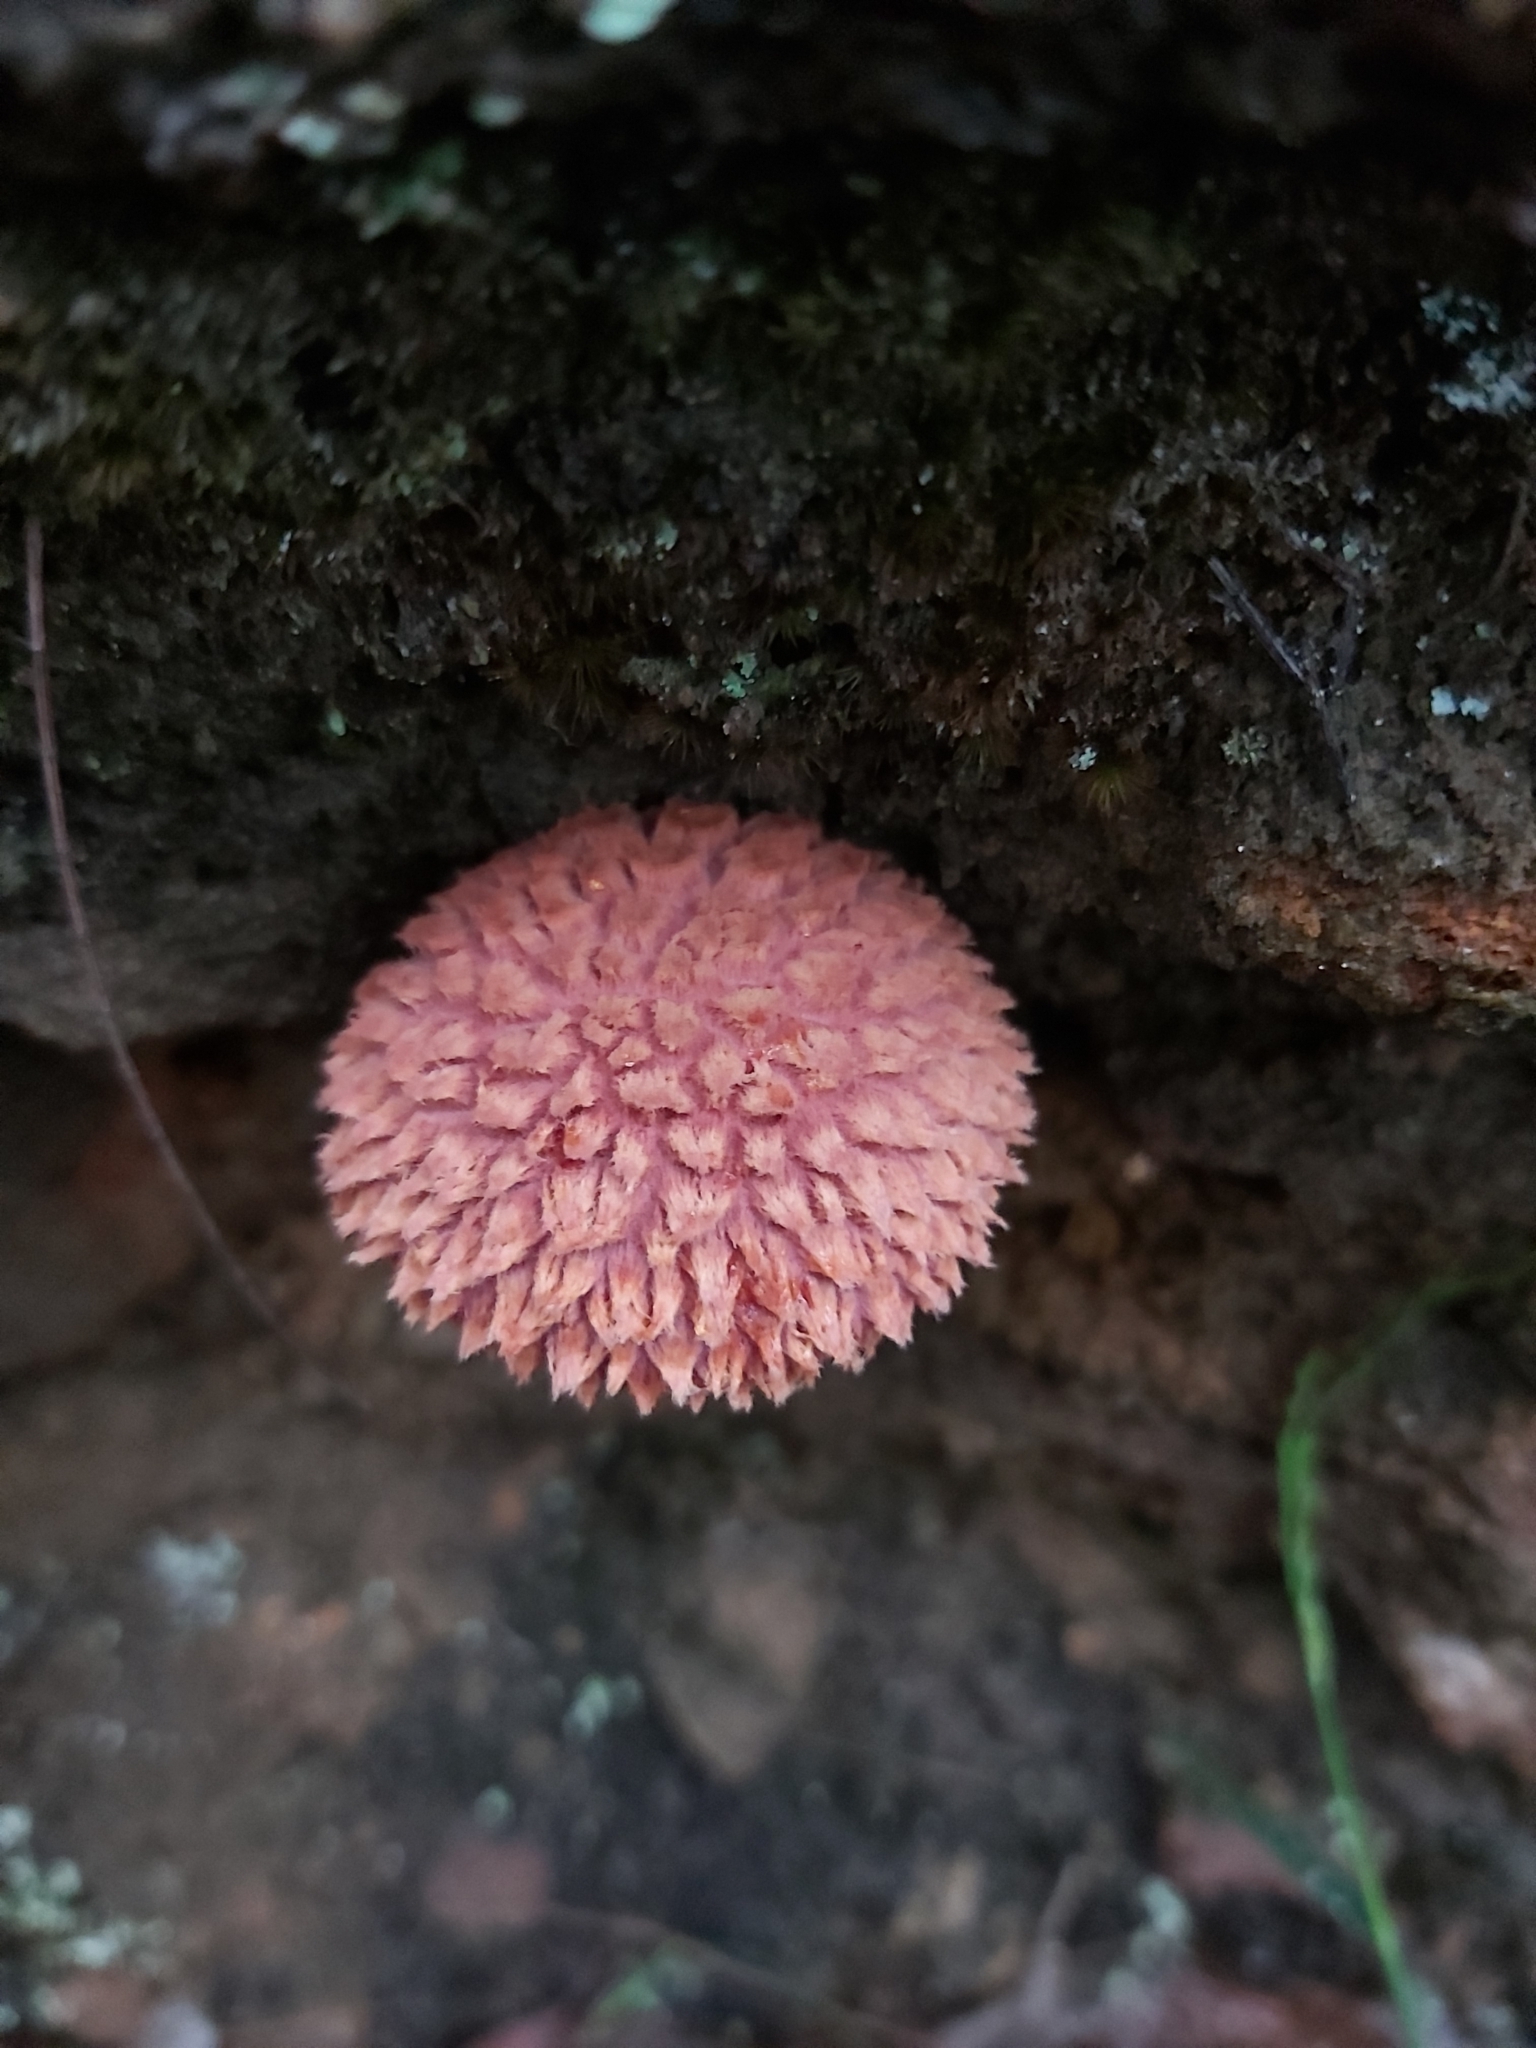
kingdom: Fungi
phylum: Basidiomycota
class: Agaricomycetes
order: Boletales
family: Boletaceae
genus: Boletellus
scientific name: Boletellus emodensis
